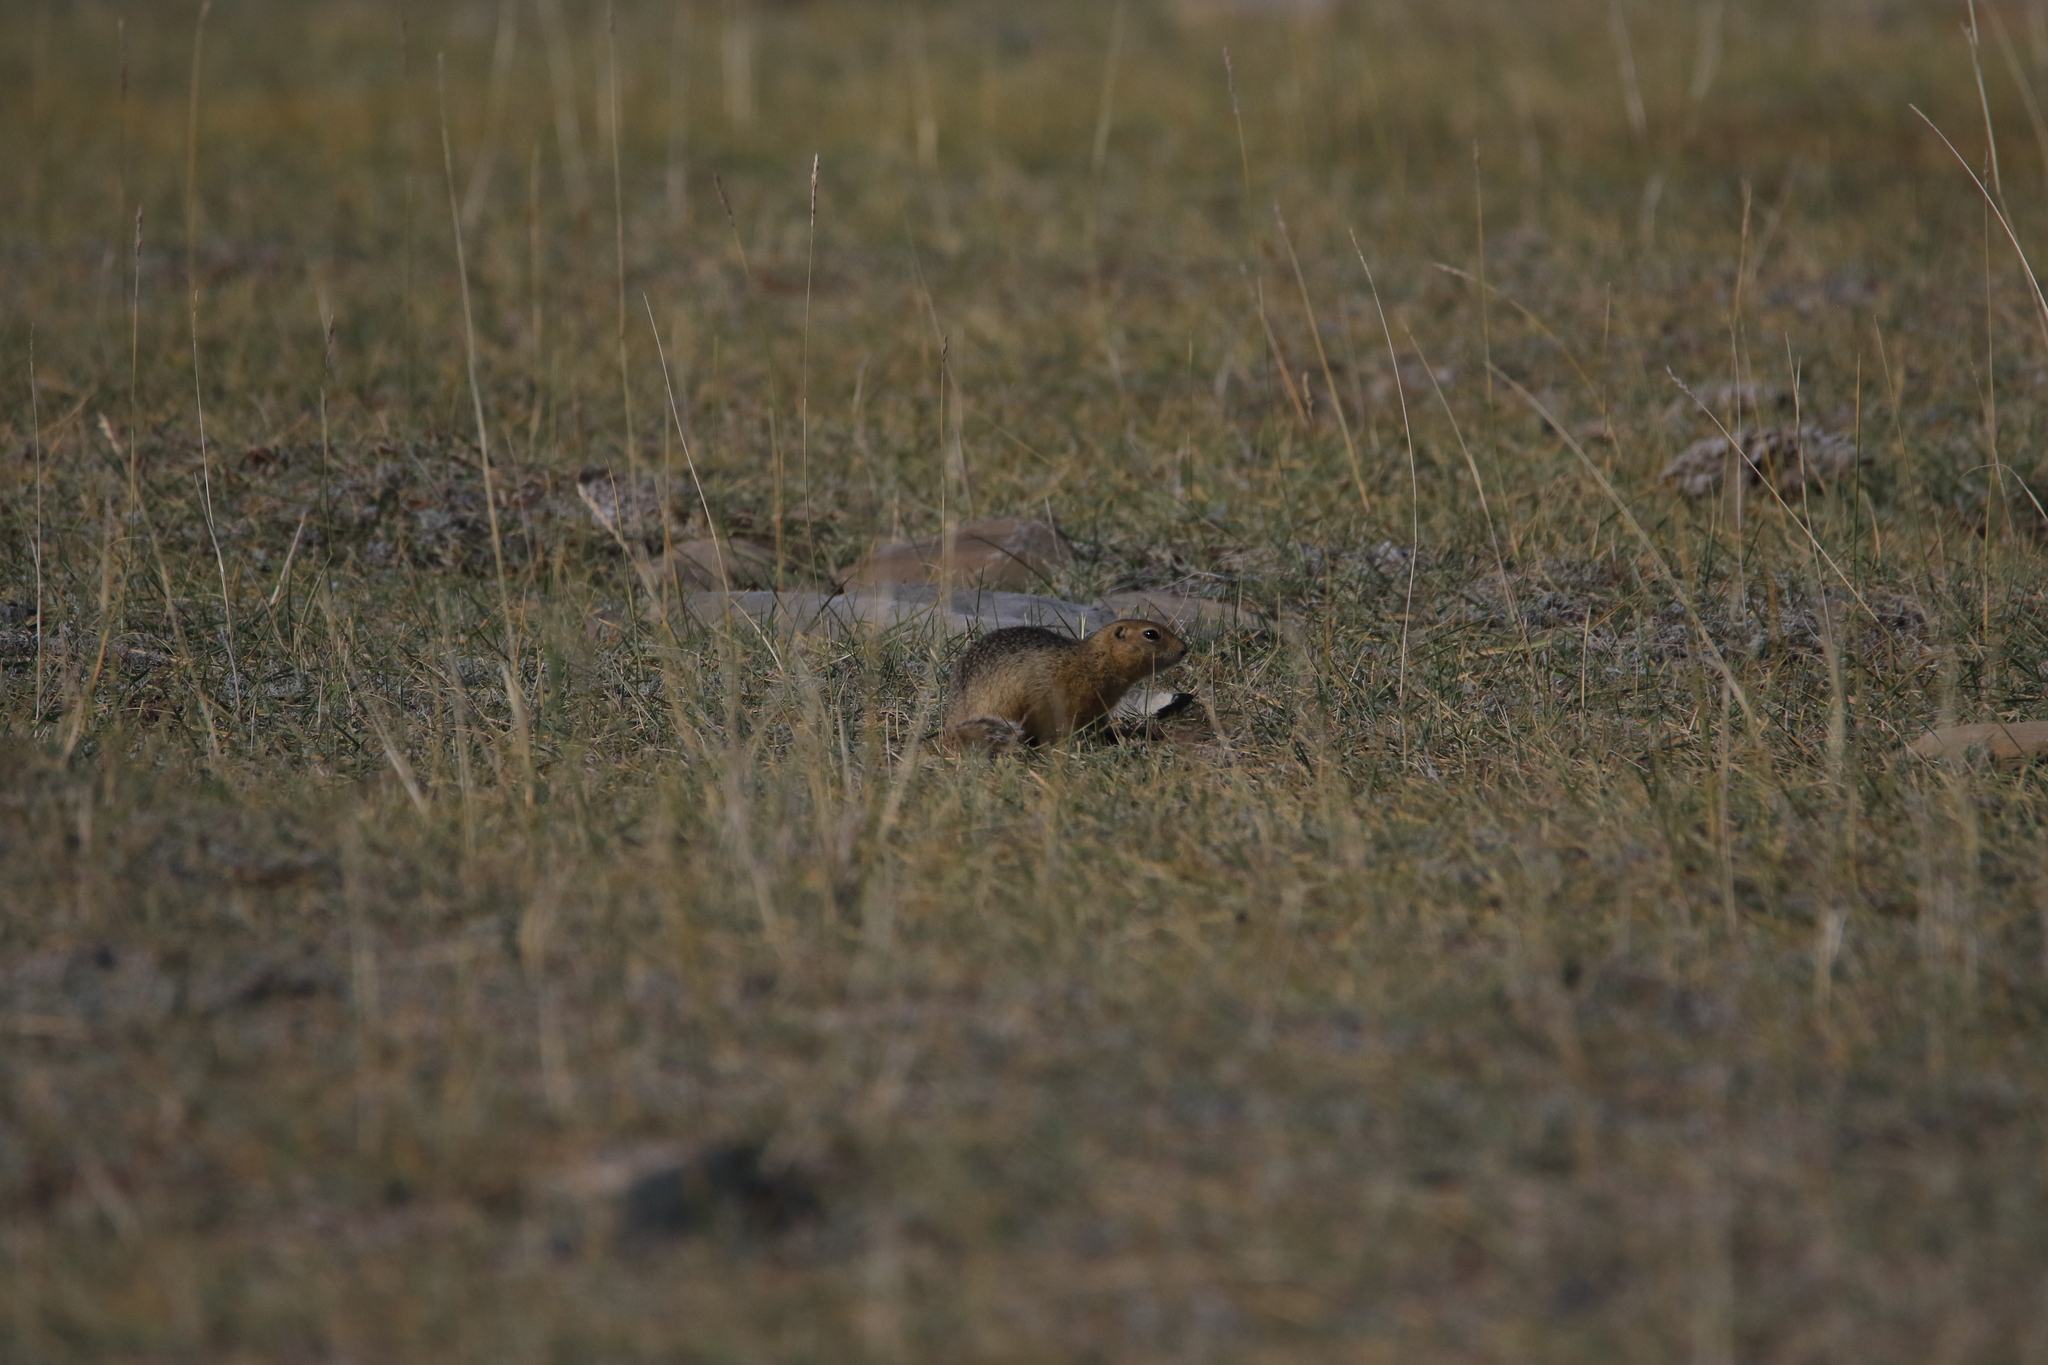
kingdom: Animalia
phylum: Chordata
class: Mammalia
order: Rodentia
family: Sciuridae
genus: Urocitellus
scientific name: Urocitellus undulatus
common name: Long-tailed ground squirrel
